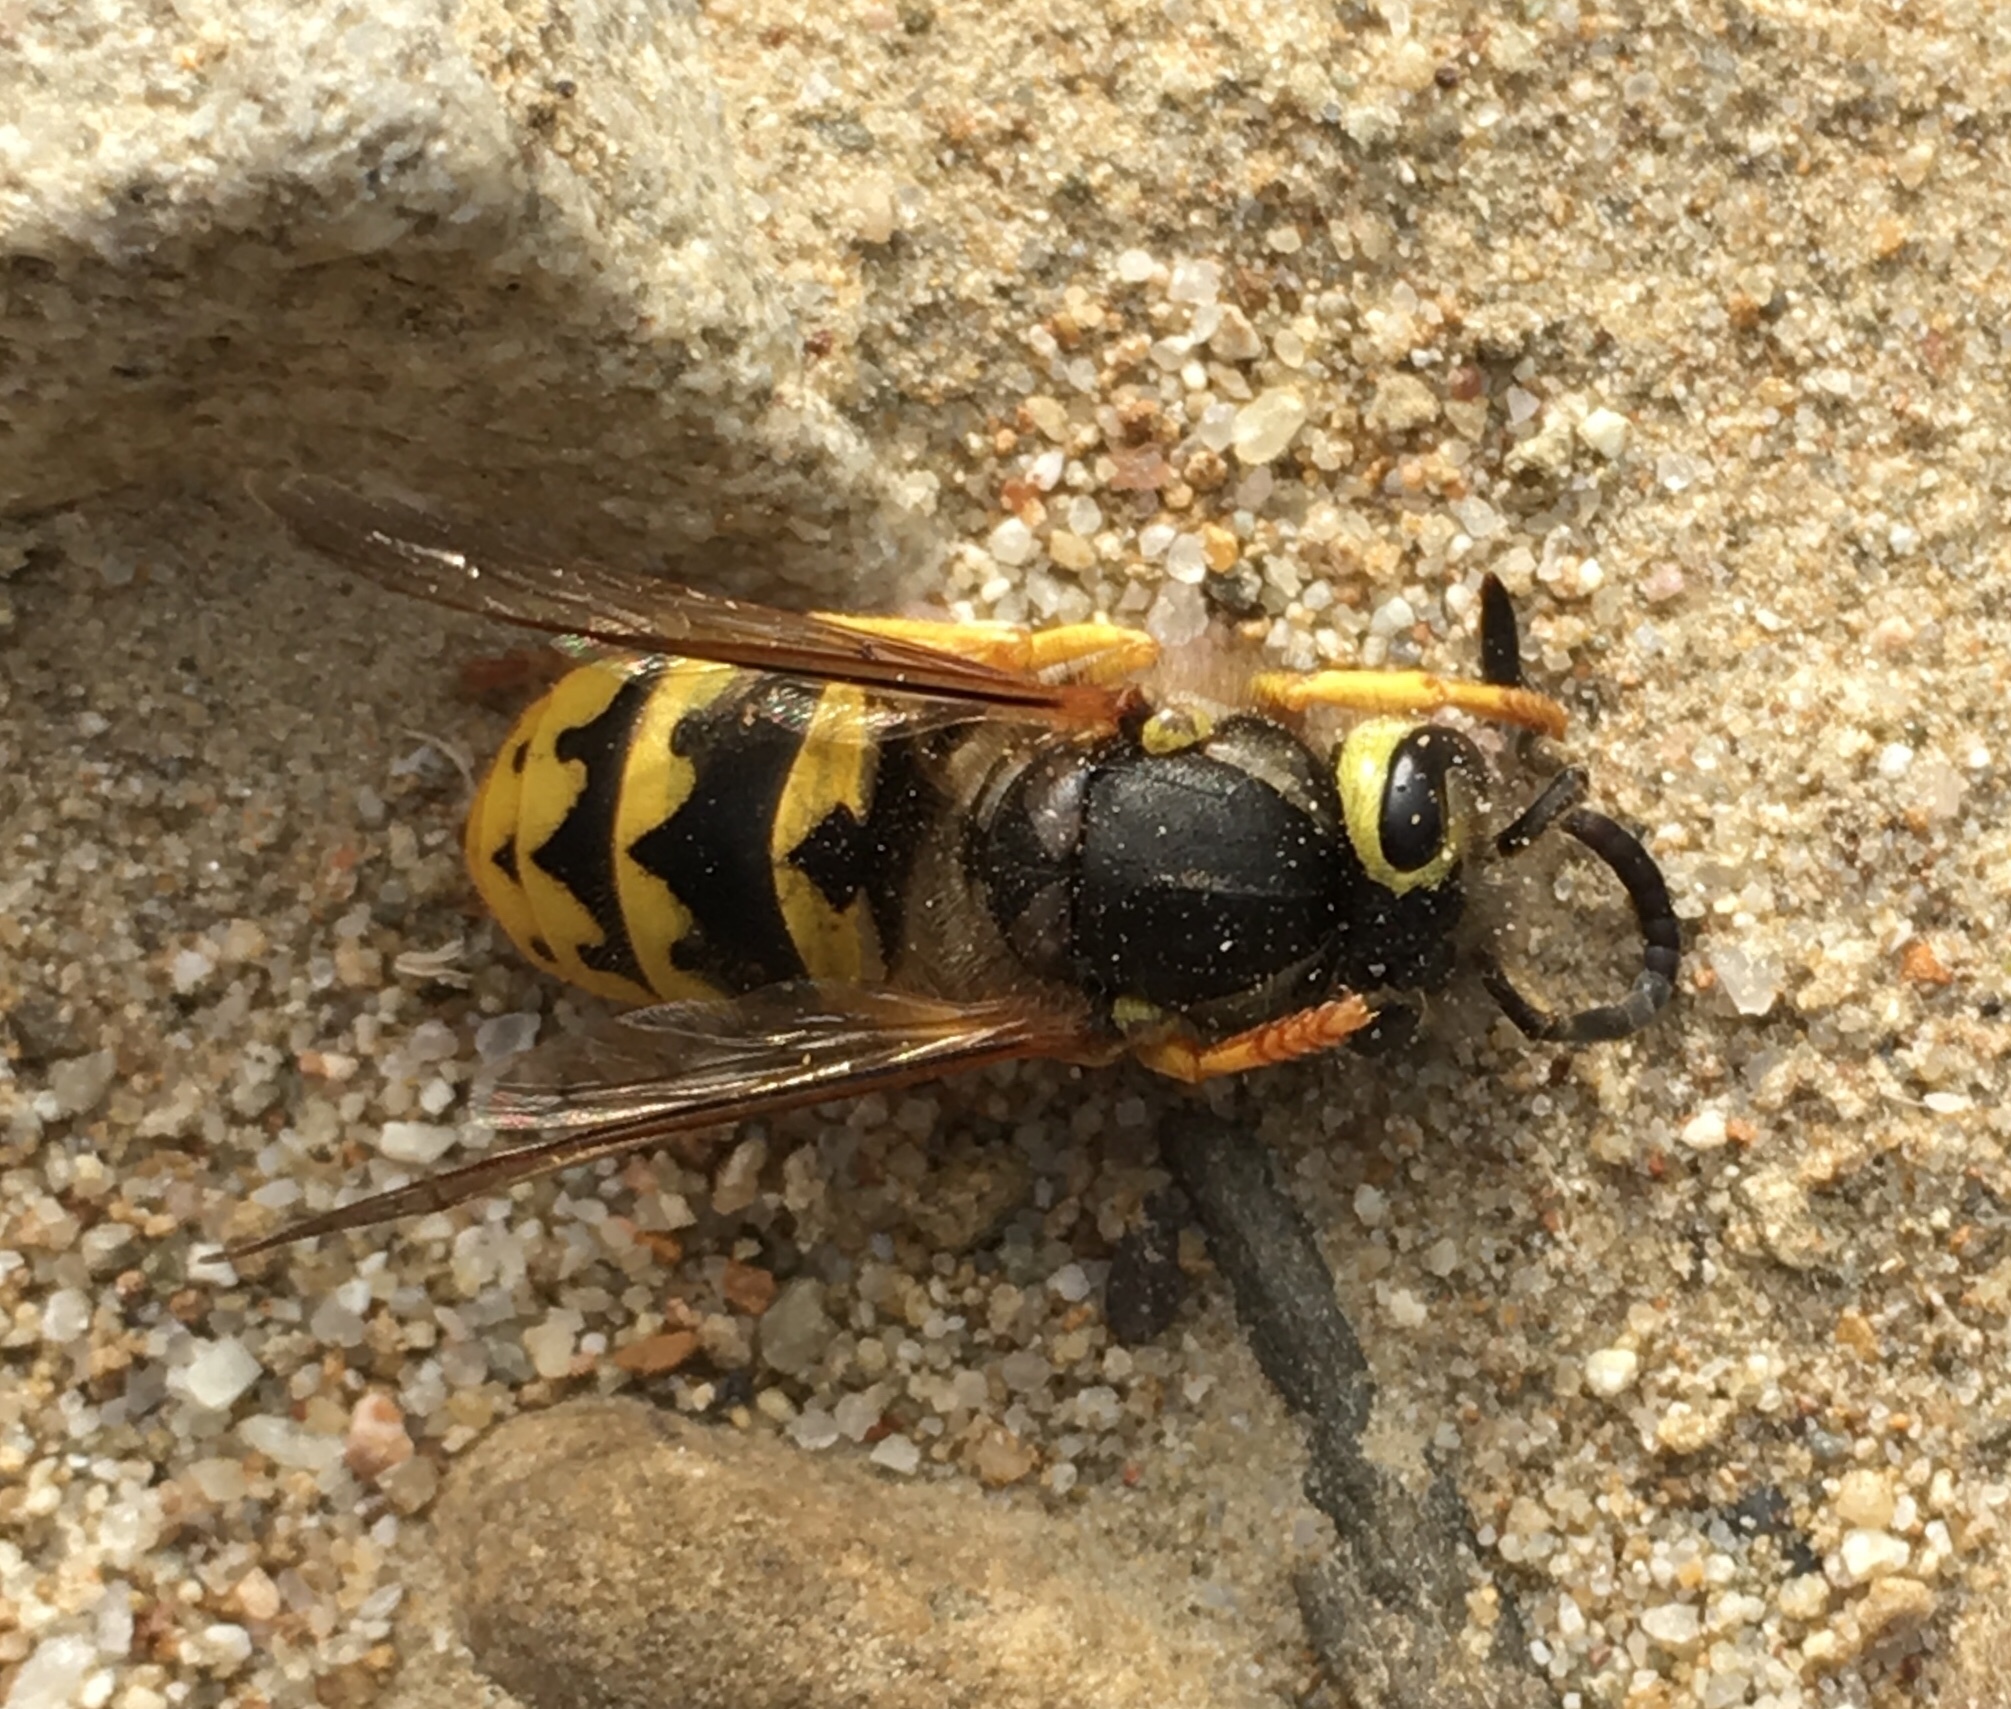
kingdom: Animalia
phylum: Arthropoda
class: Insecta
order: Hymenoptera
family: Vespidae
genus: Vespula
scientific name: Vespula pensylvanica
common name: Western yellowjacket
